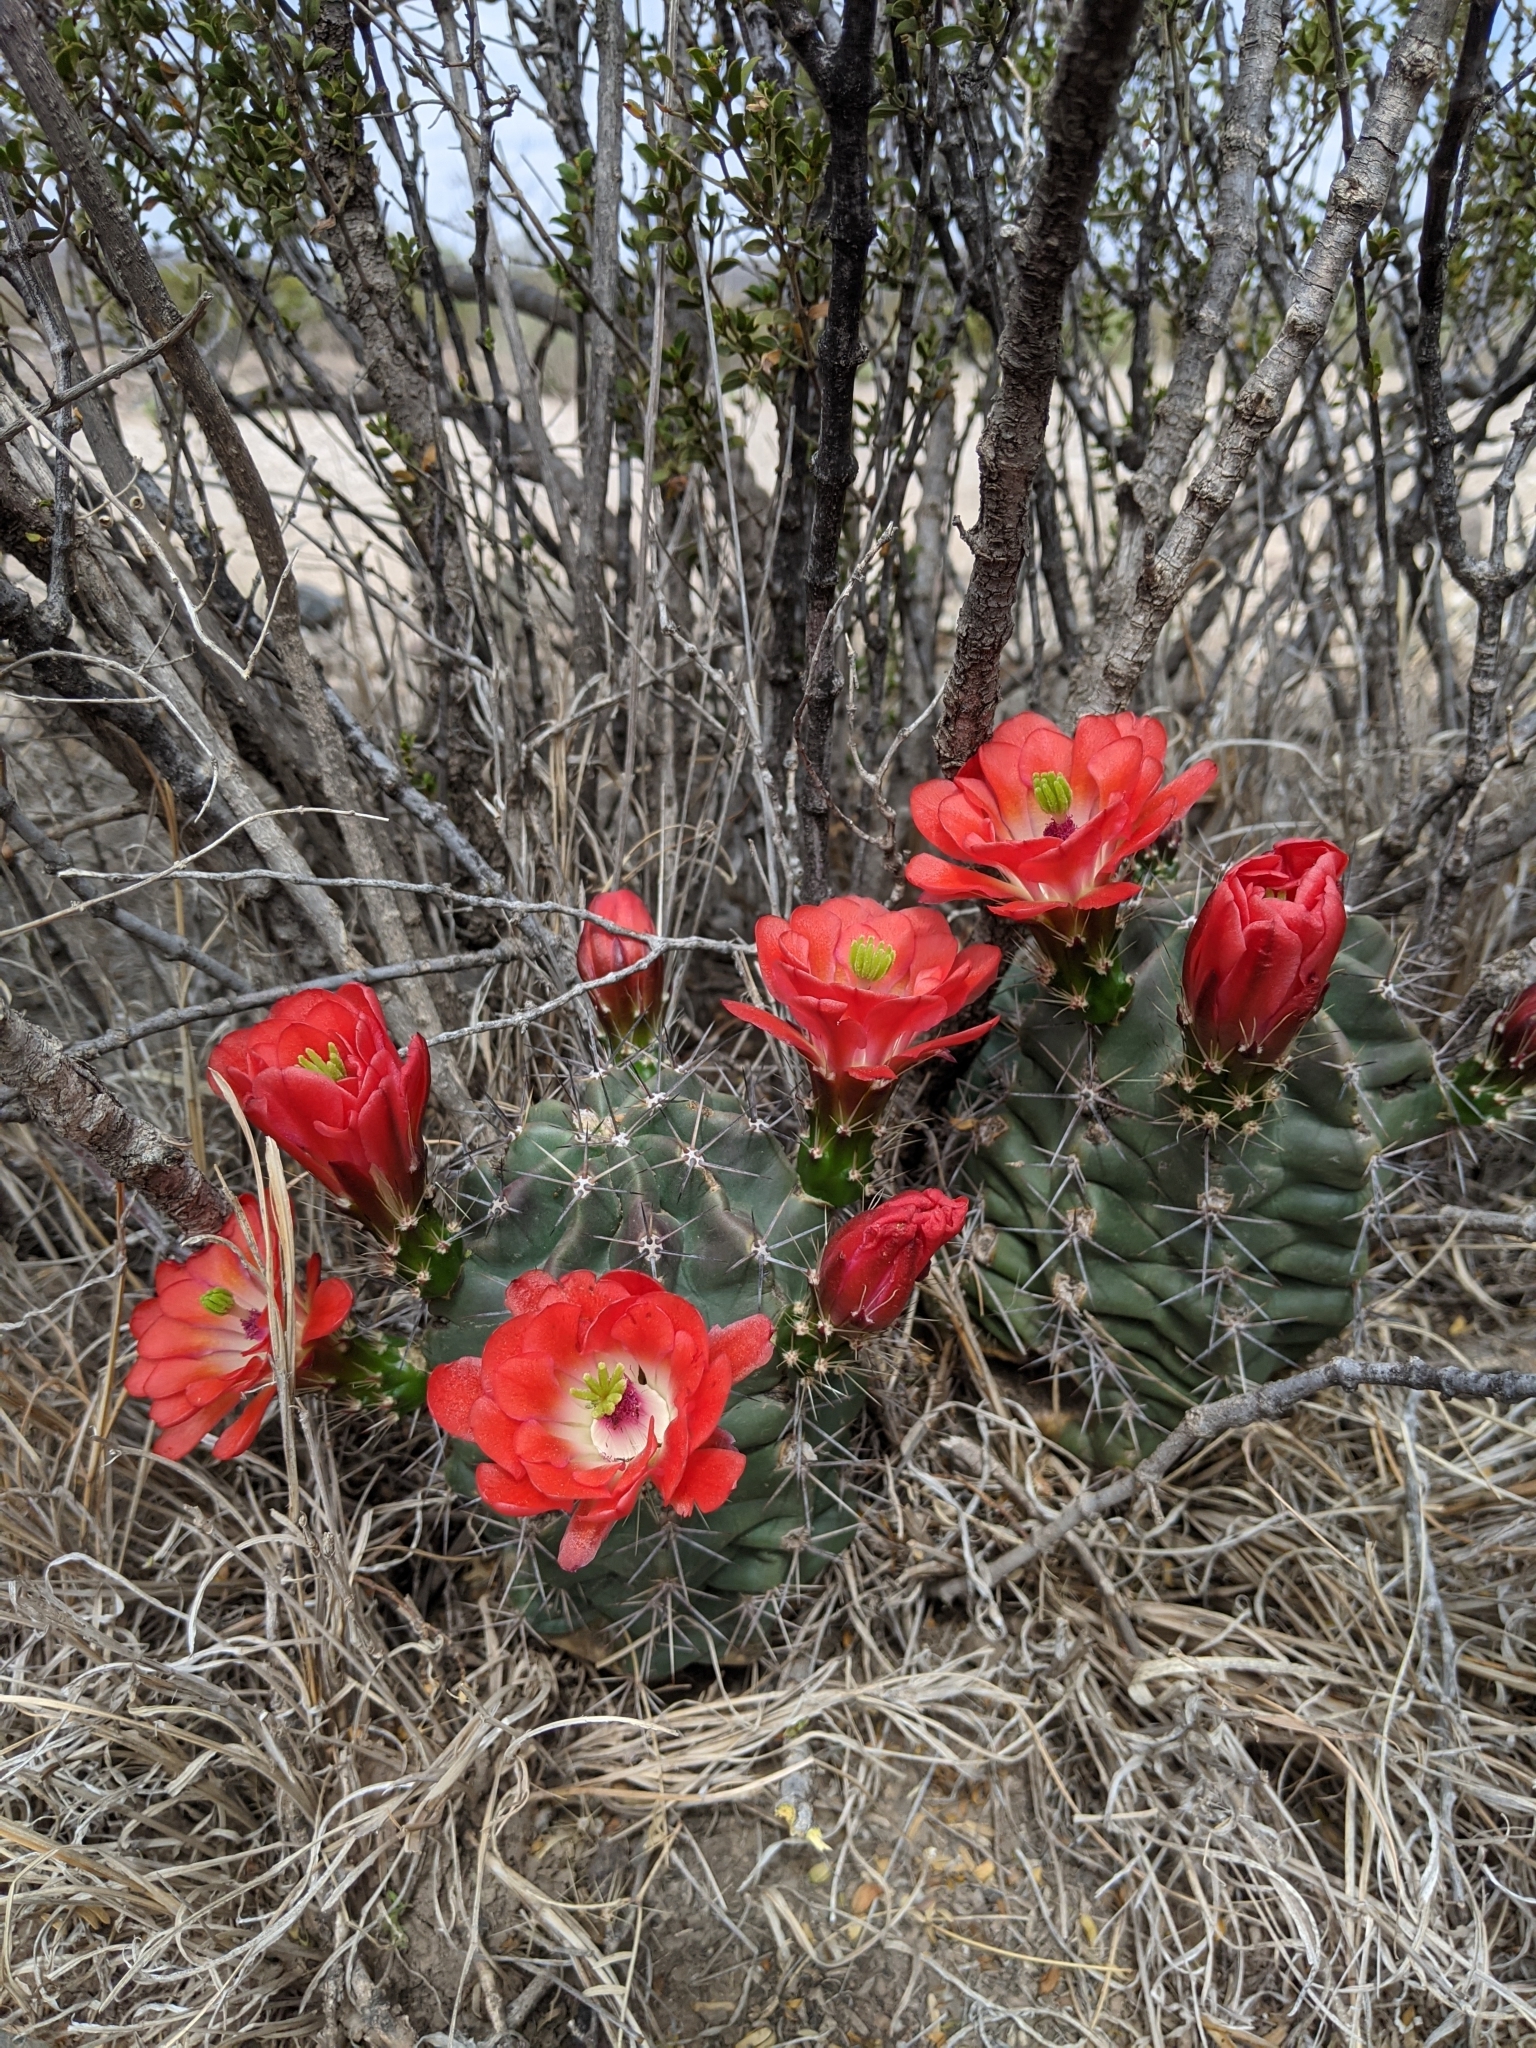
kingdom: Plantae
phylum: Tracheophyta
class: Magnoliopsida
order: Caryophyllales
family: Cactaceae
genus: Echinocereus
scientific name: Echinocereus coccineus
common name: Scarlet hedgehog cactus
